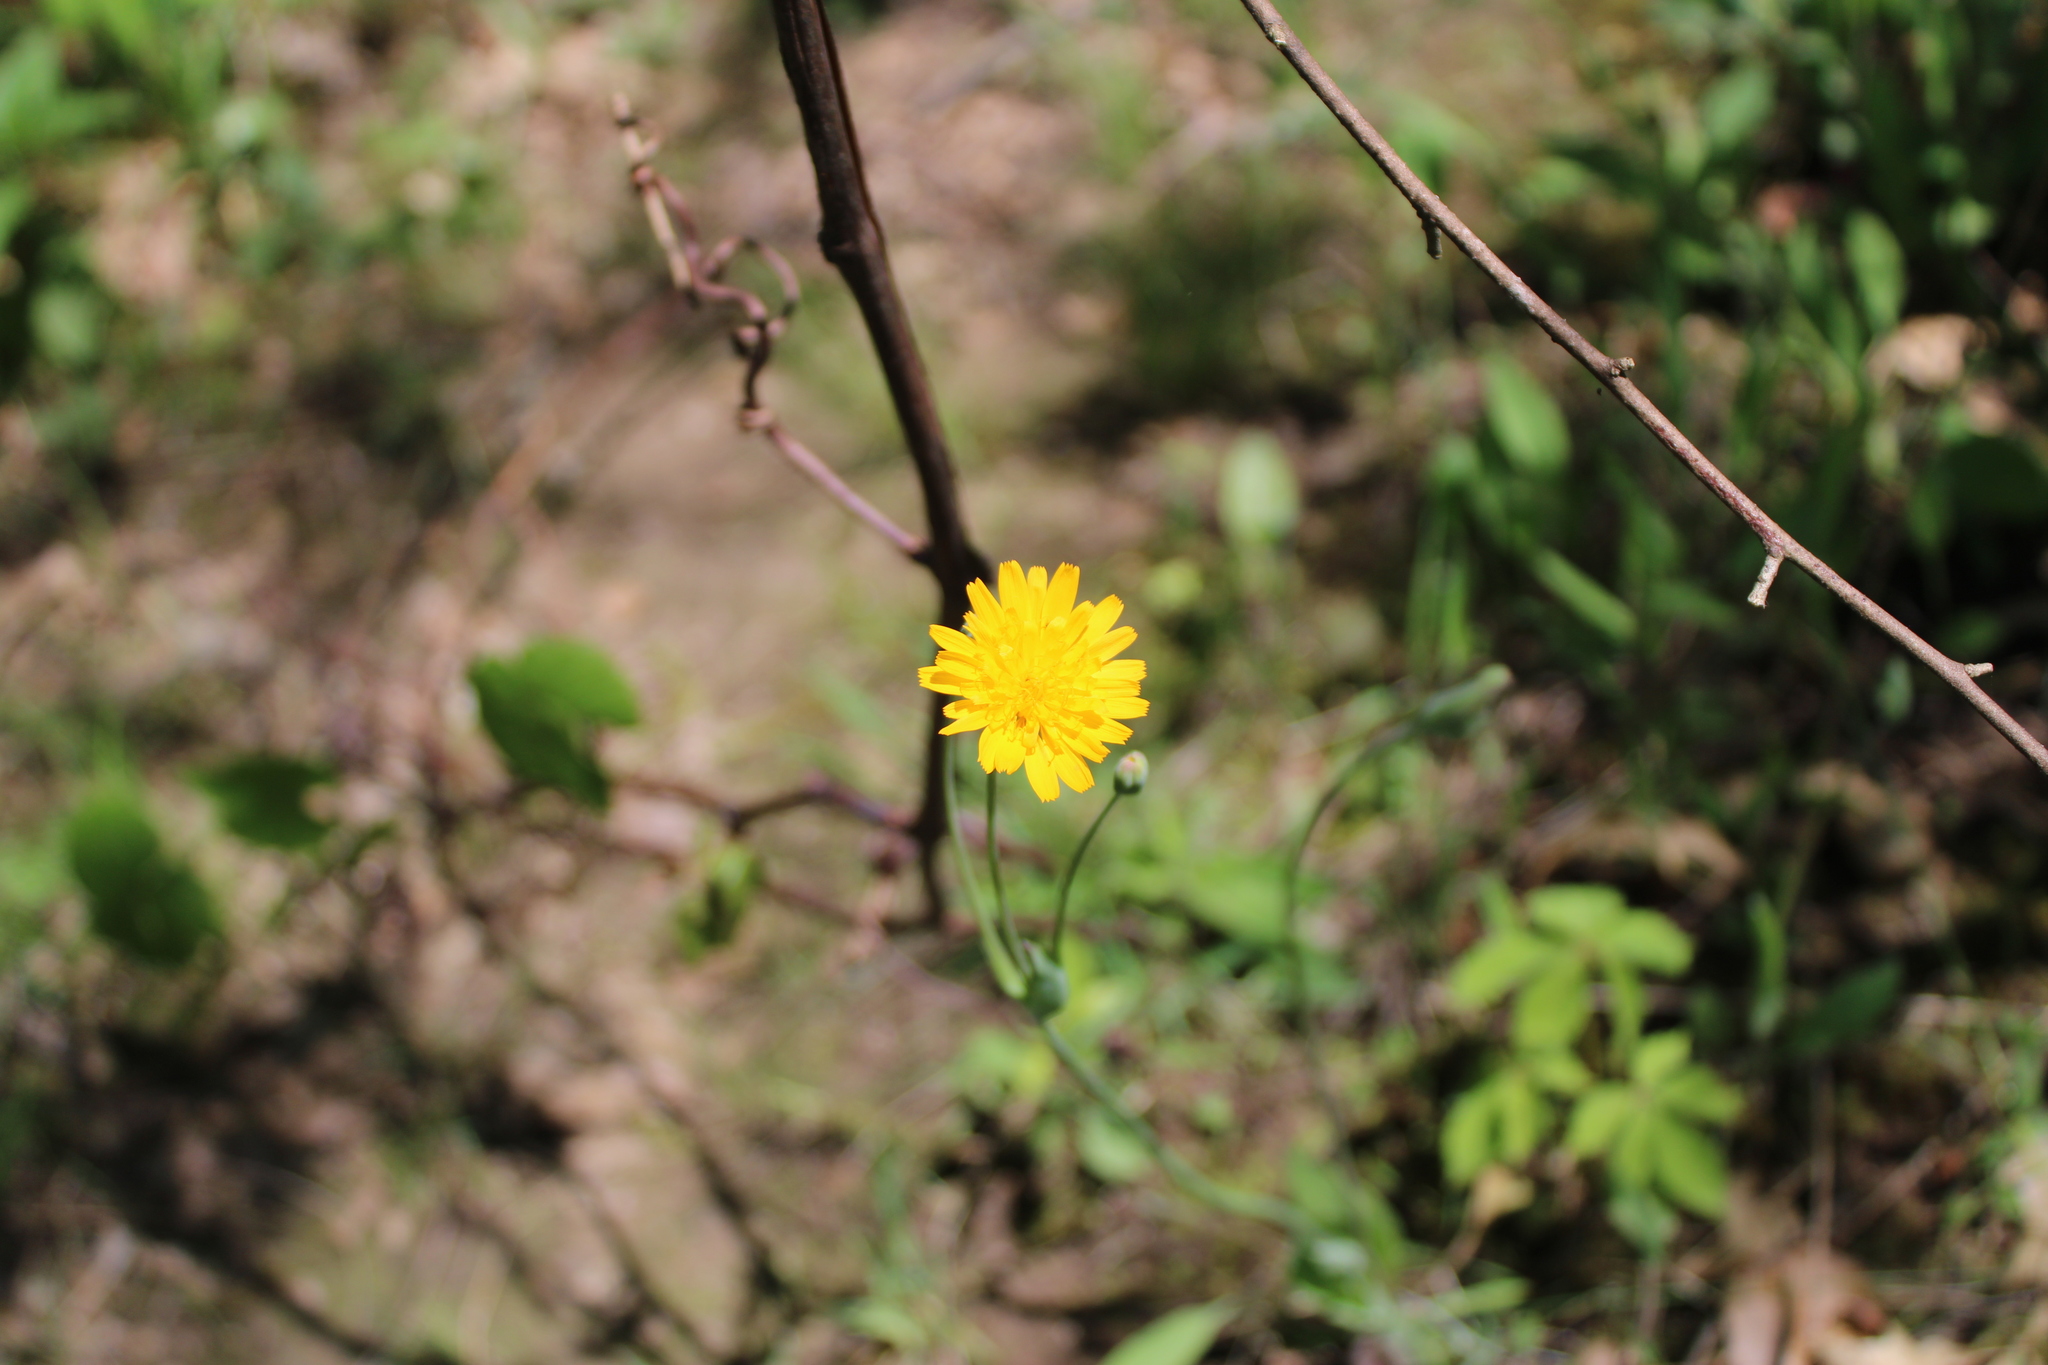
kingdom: Plantae
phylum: Tracheophyta
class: Magnoliopsida
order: Asterales
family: Asteraceae
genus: Krigia
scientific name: Krigia biflora
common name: Orange dwarf-dandelion
